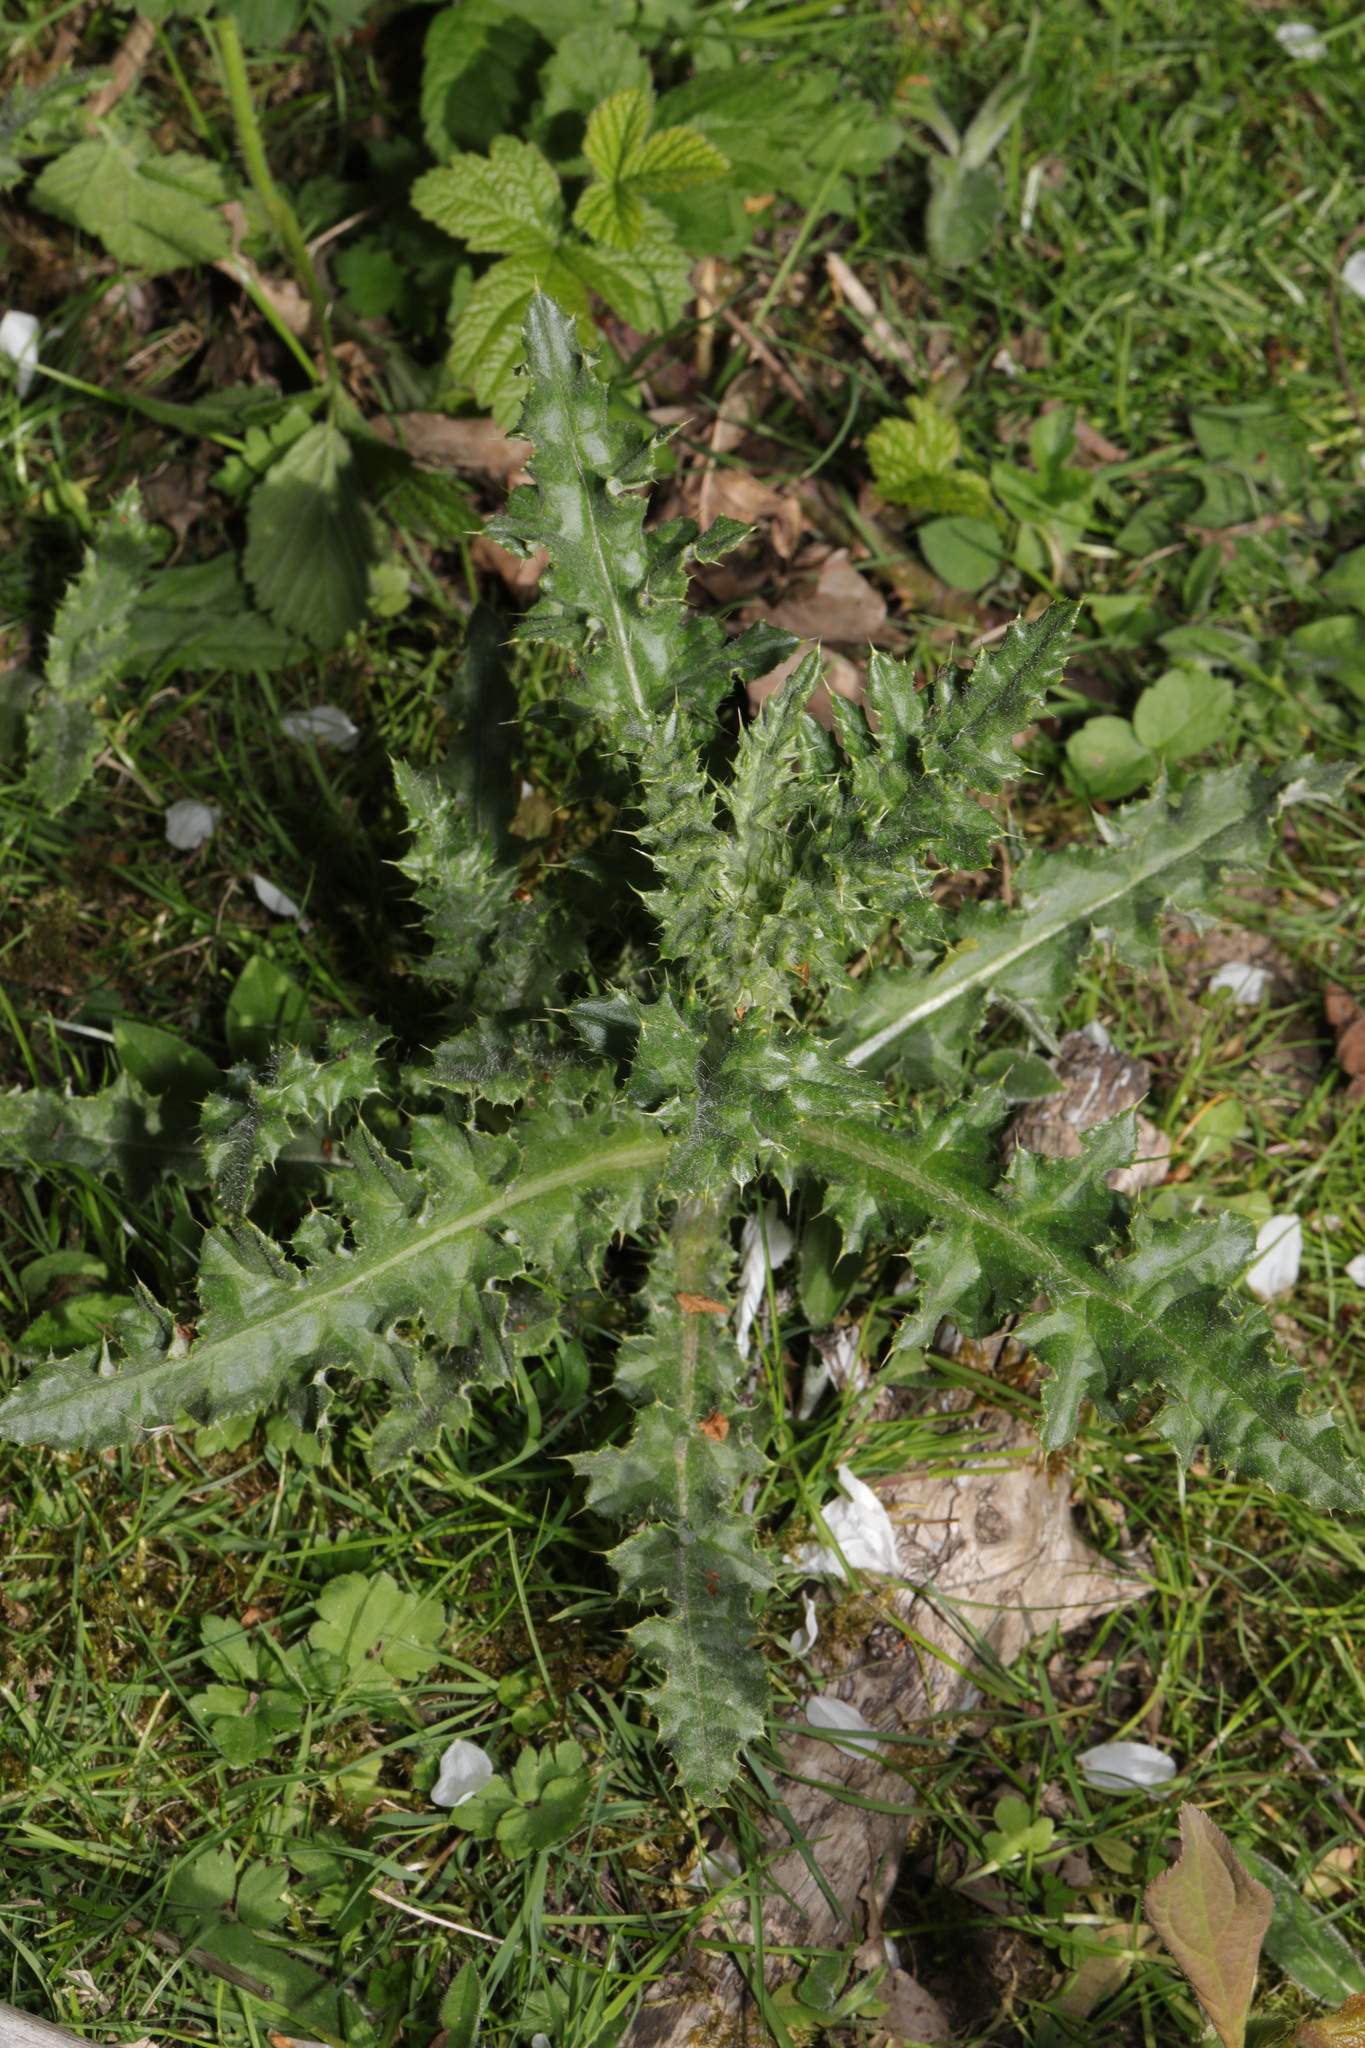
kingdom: Plantae
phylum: Tracheophyta
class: Magnoliopsida
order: Asterales
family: Asteraceae
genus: Cirsium
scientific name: Cirsium arvense
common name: Creeping thistle
